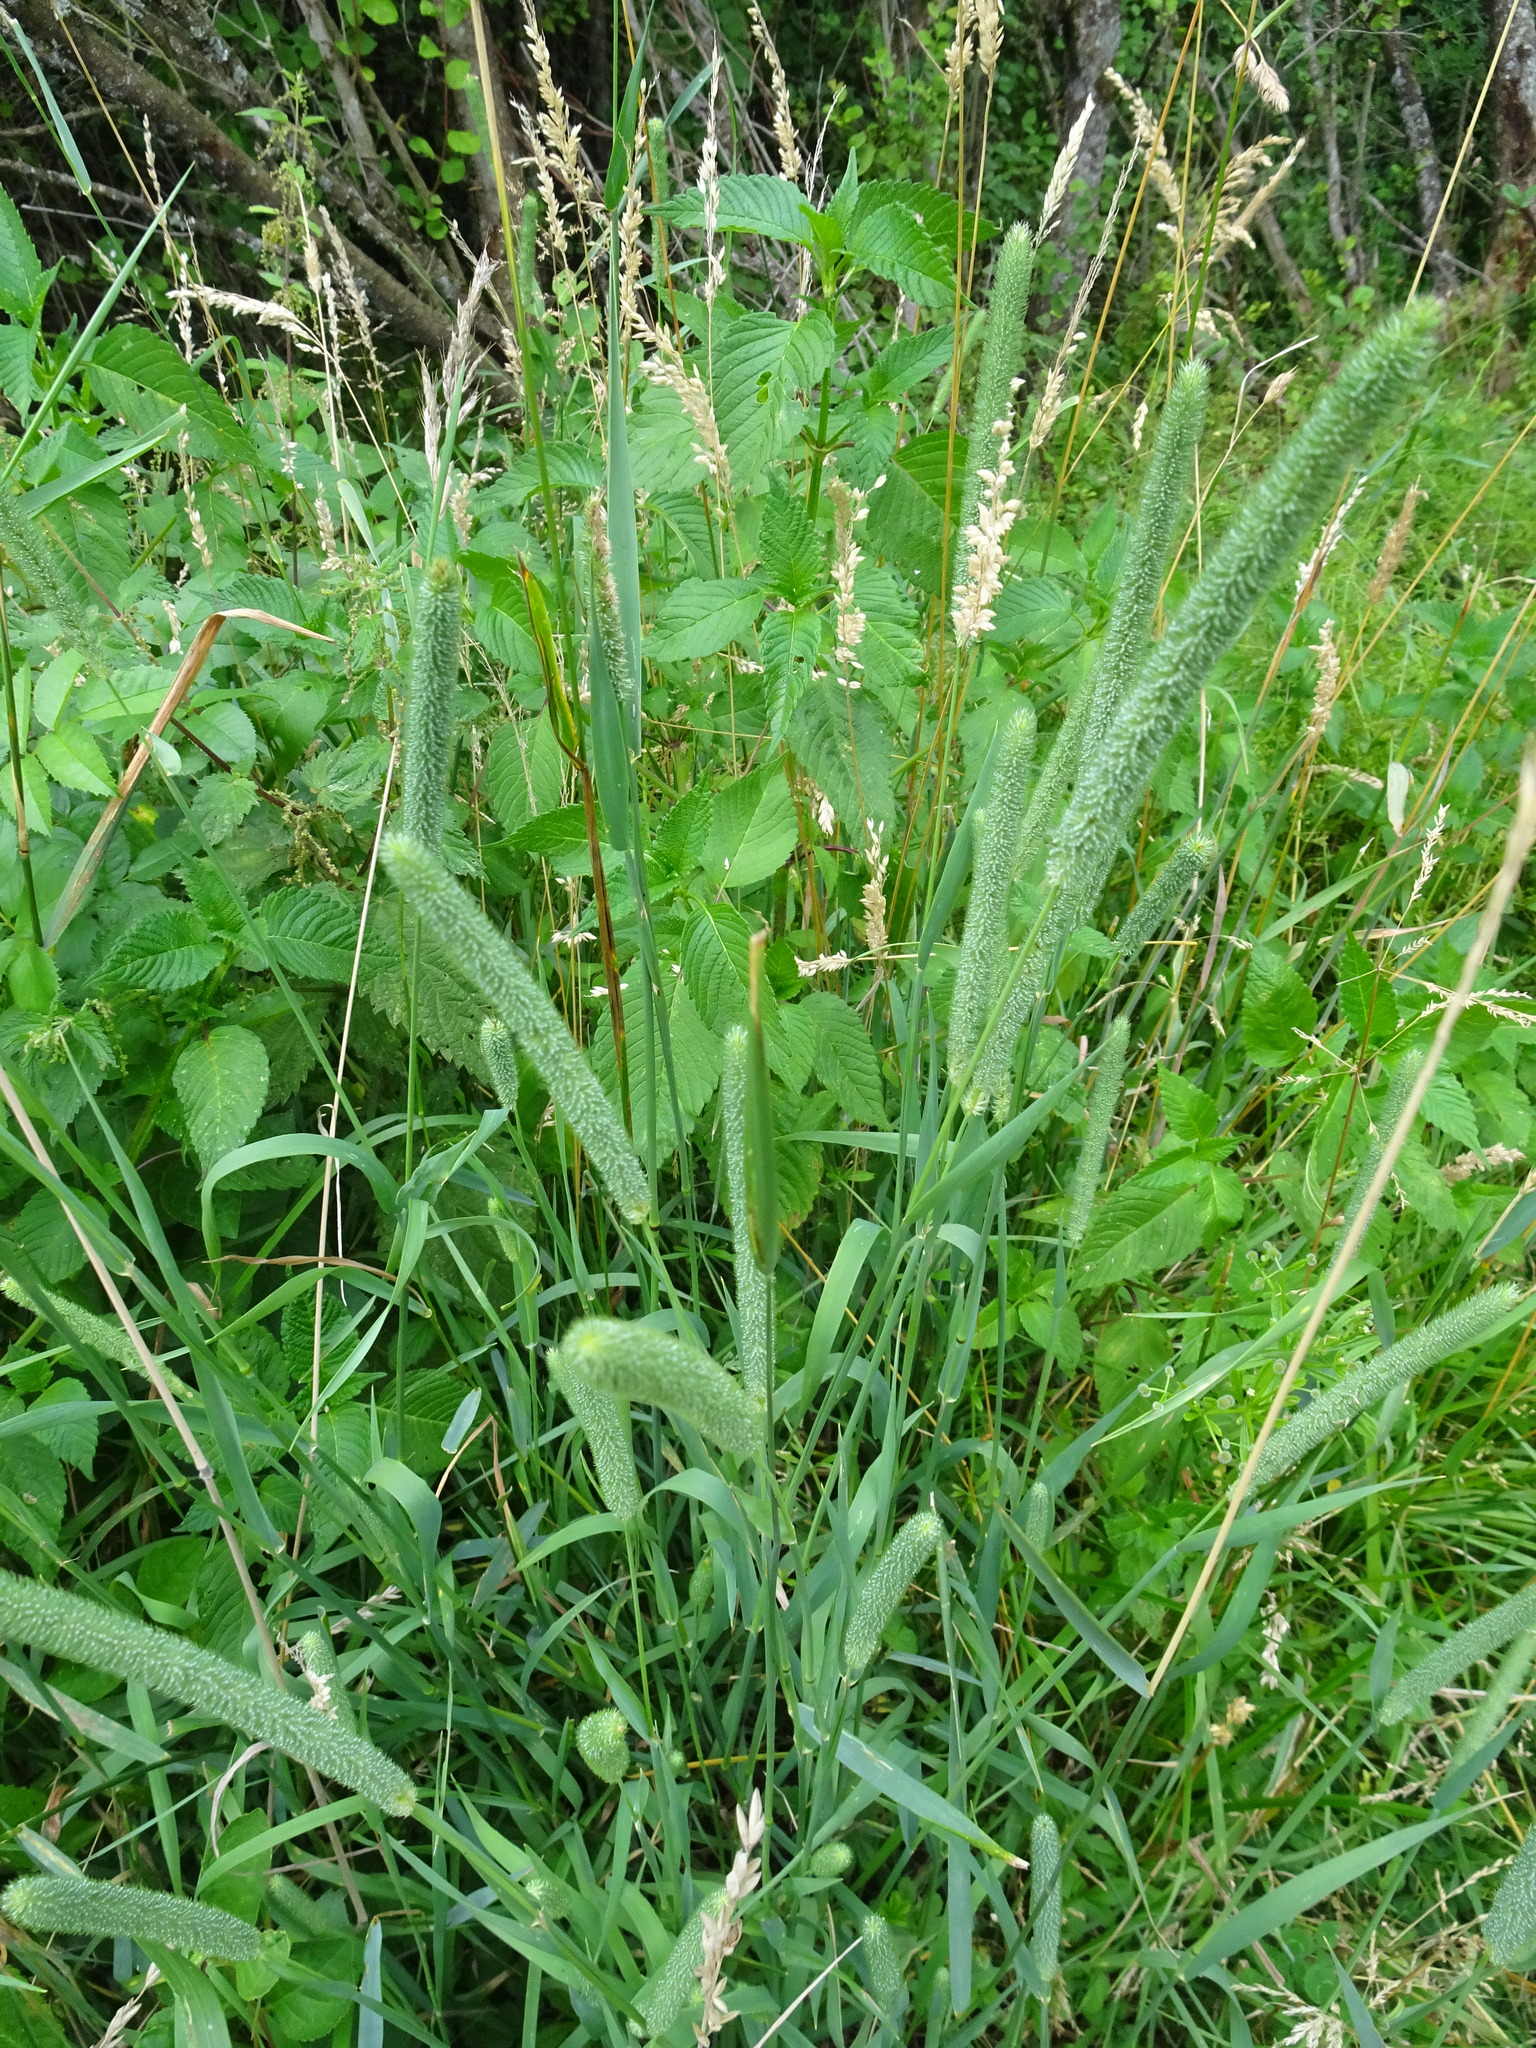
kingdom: Plantae
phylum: Tracheophyta
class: Liliopsida
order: Poales
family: Poaceae
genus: Phleum
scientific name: Phleum pratense
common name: Timothy grass
